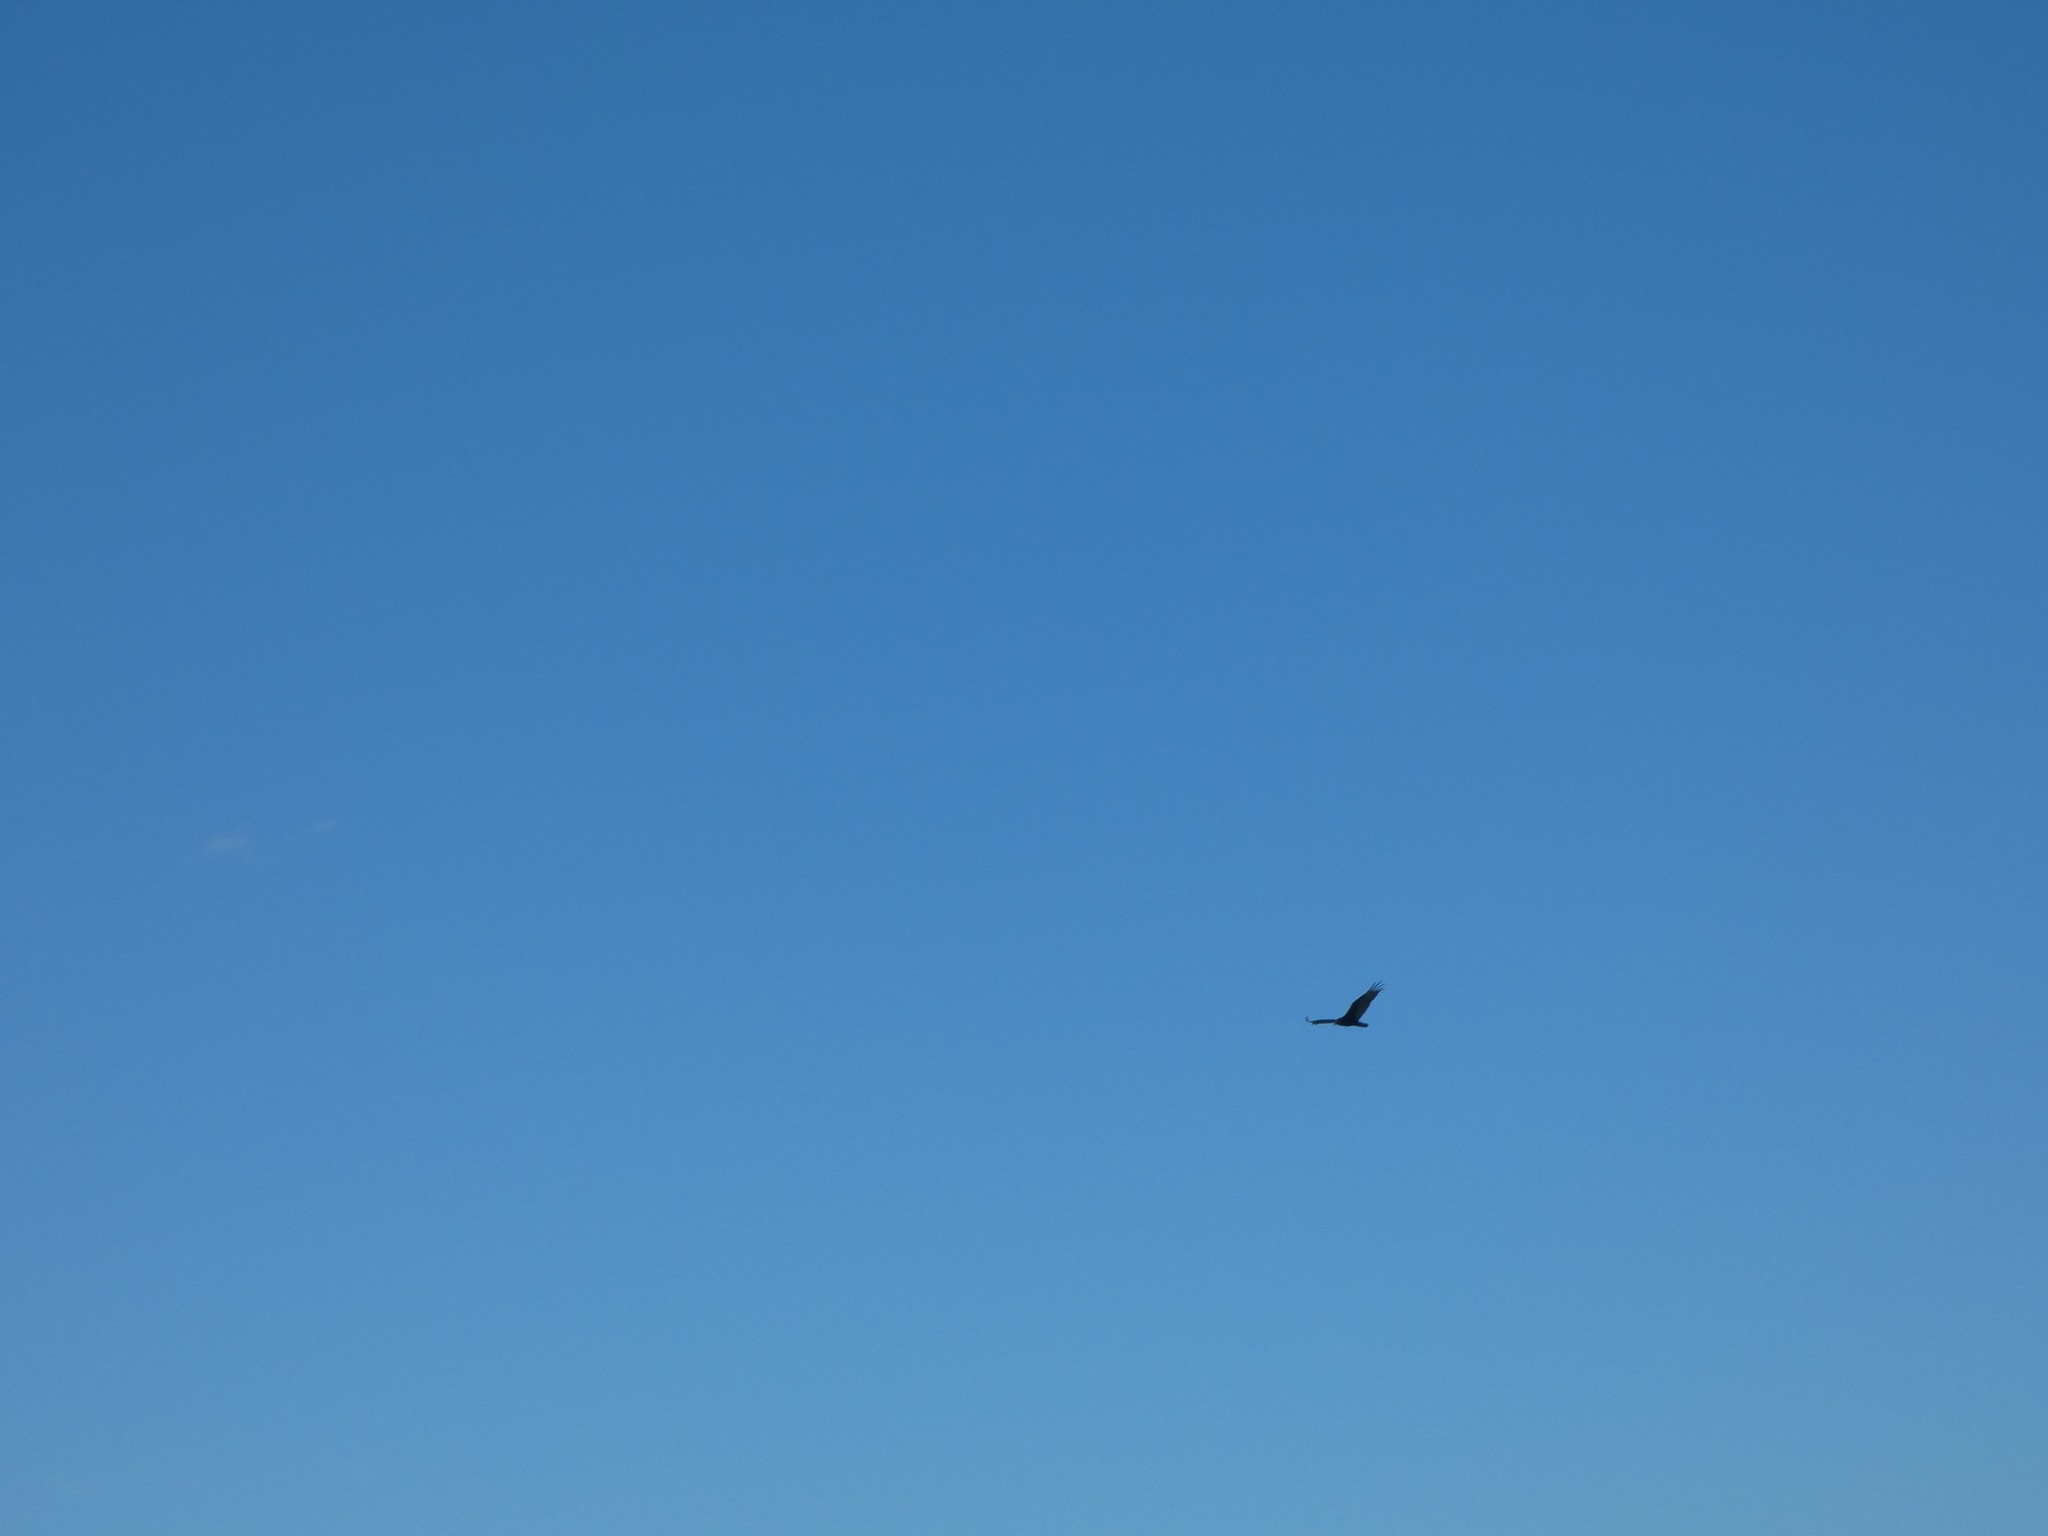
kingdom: Animalia
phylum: Chordata
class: Aves
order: Accipitriformes
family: Cathartidae
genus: Cathartes
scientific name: Cathartes aura
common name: Turkey vulture
